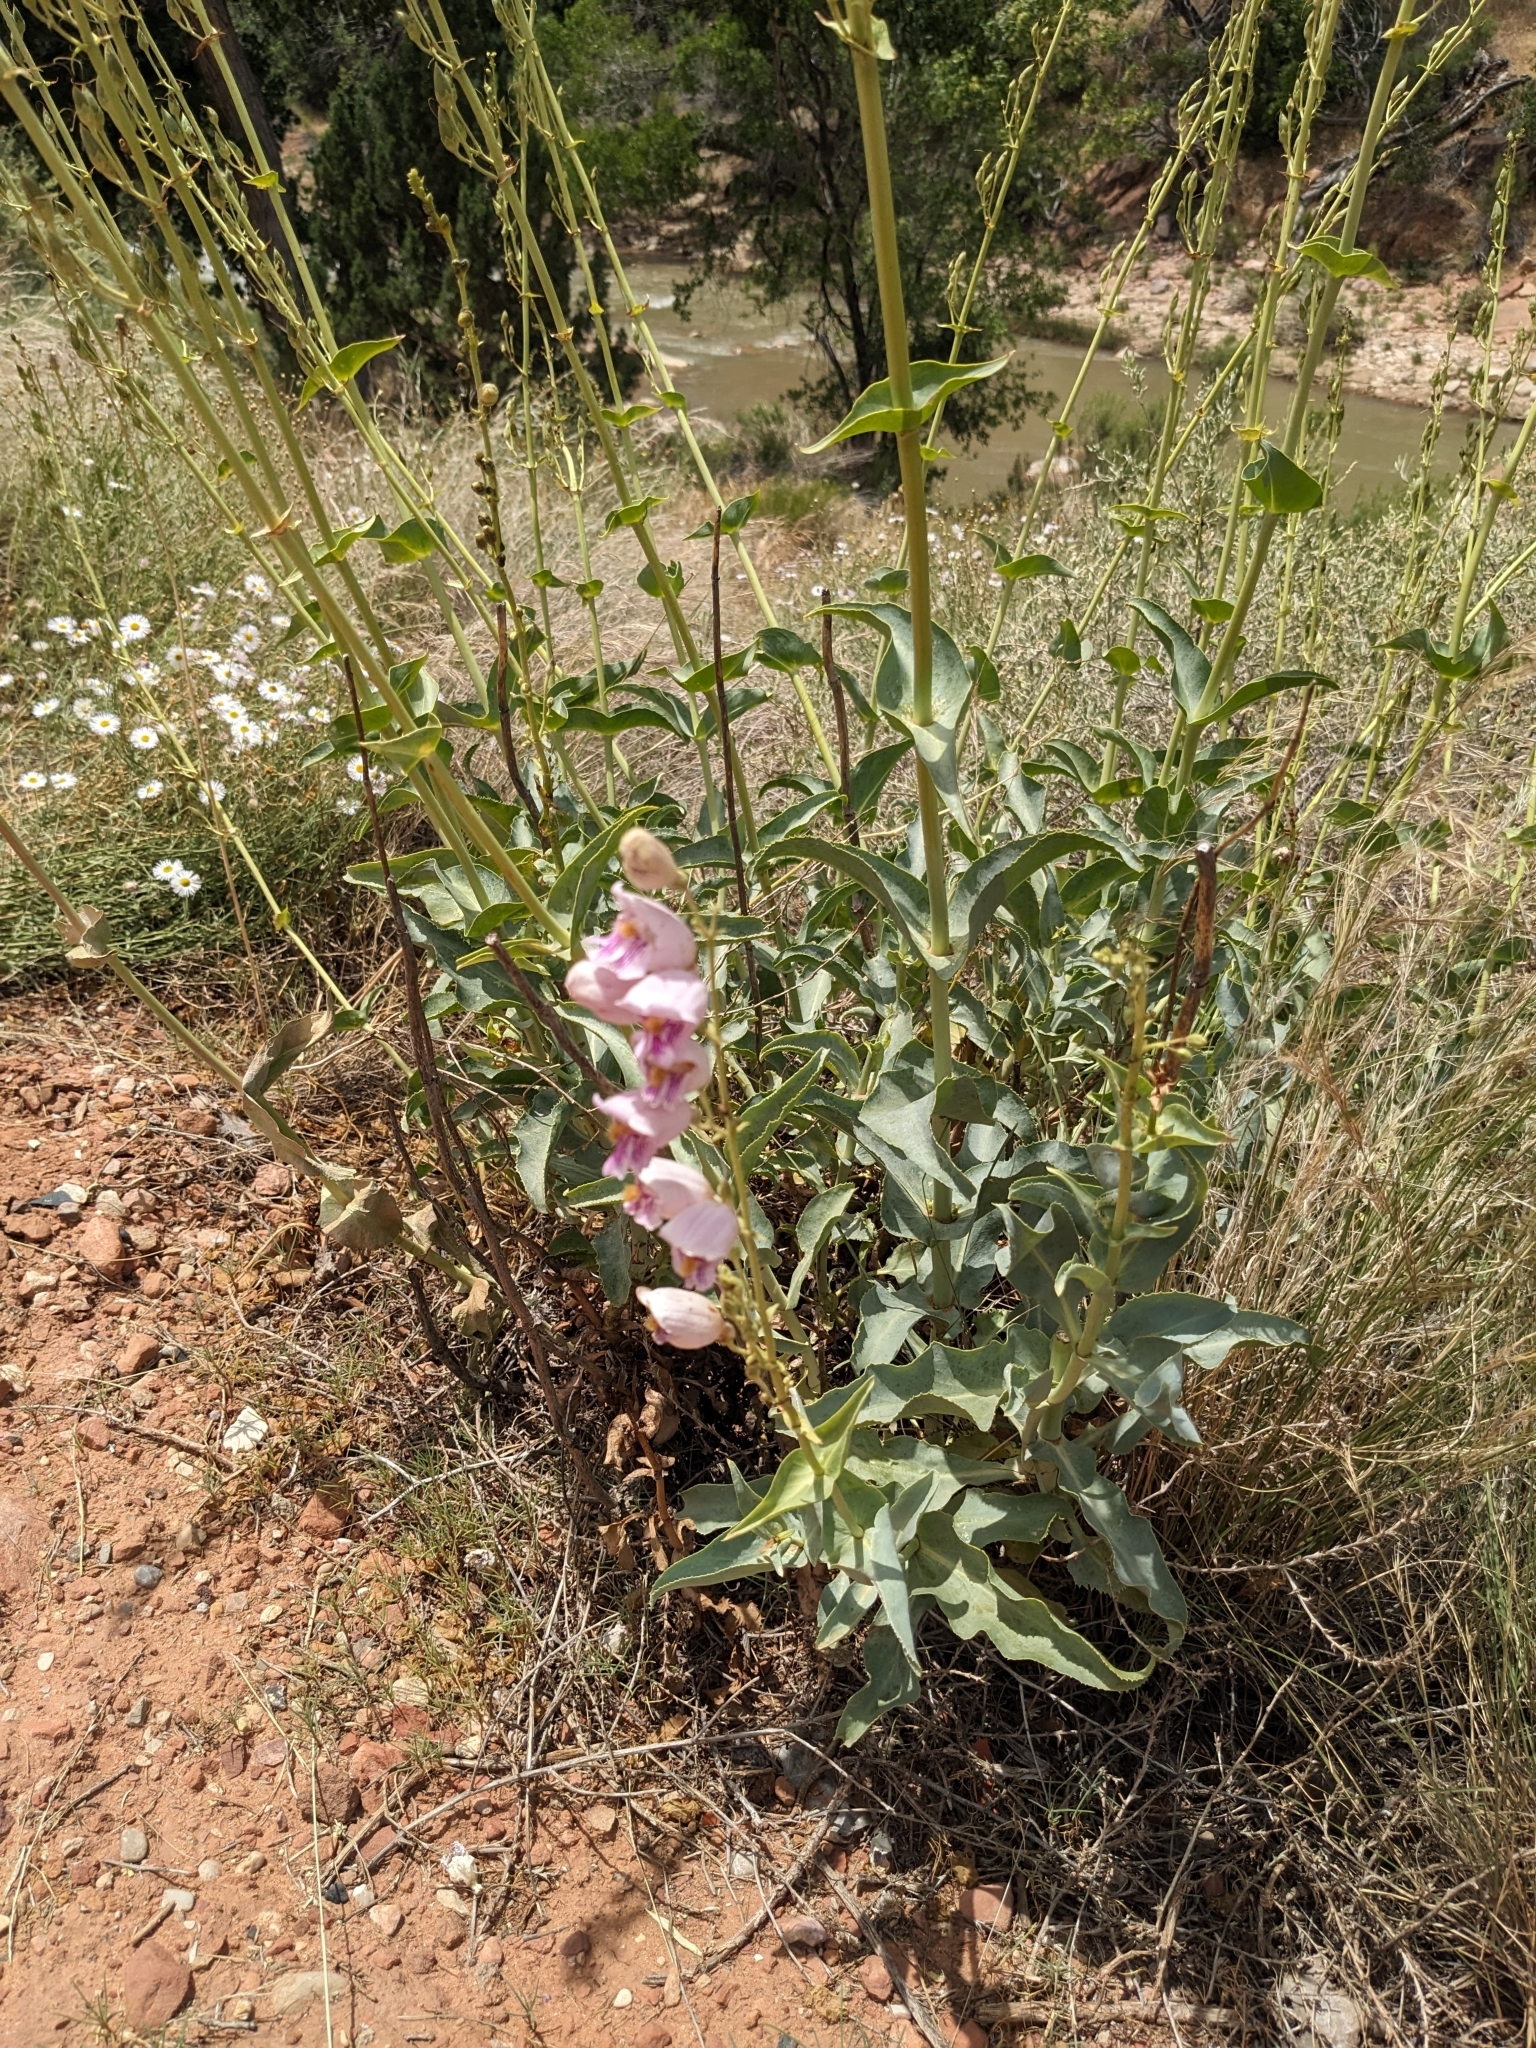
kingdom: Plantae
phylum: Tracheophyta
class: Magnoliopsida
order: Lamiales
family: Plantaginaceae
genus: Penstemon
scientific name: Penstemon palmeri
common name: Palmer penstemon
